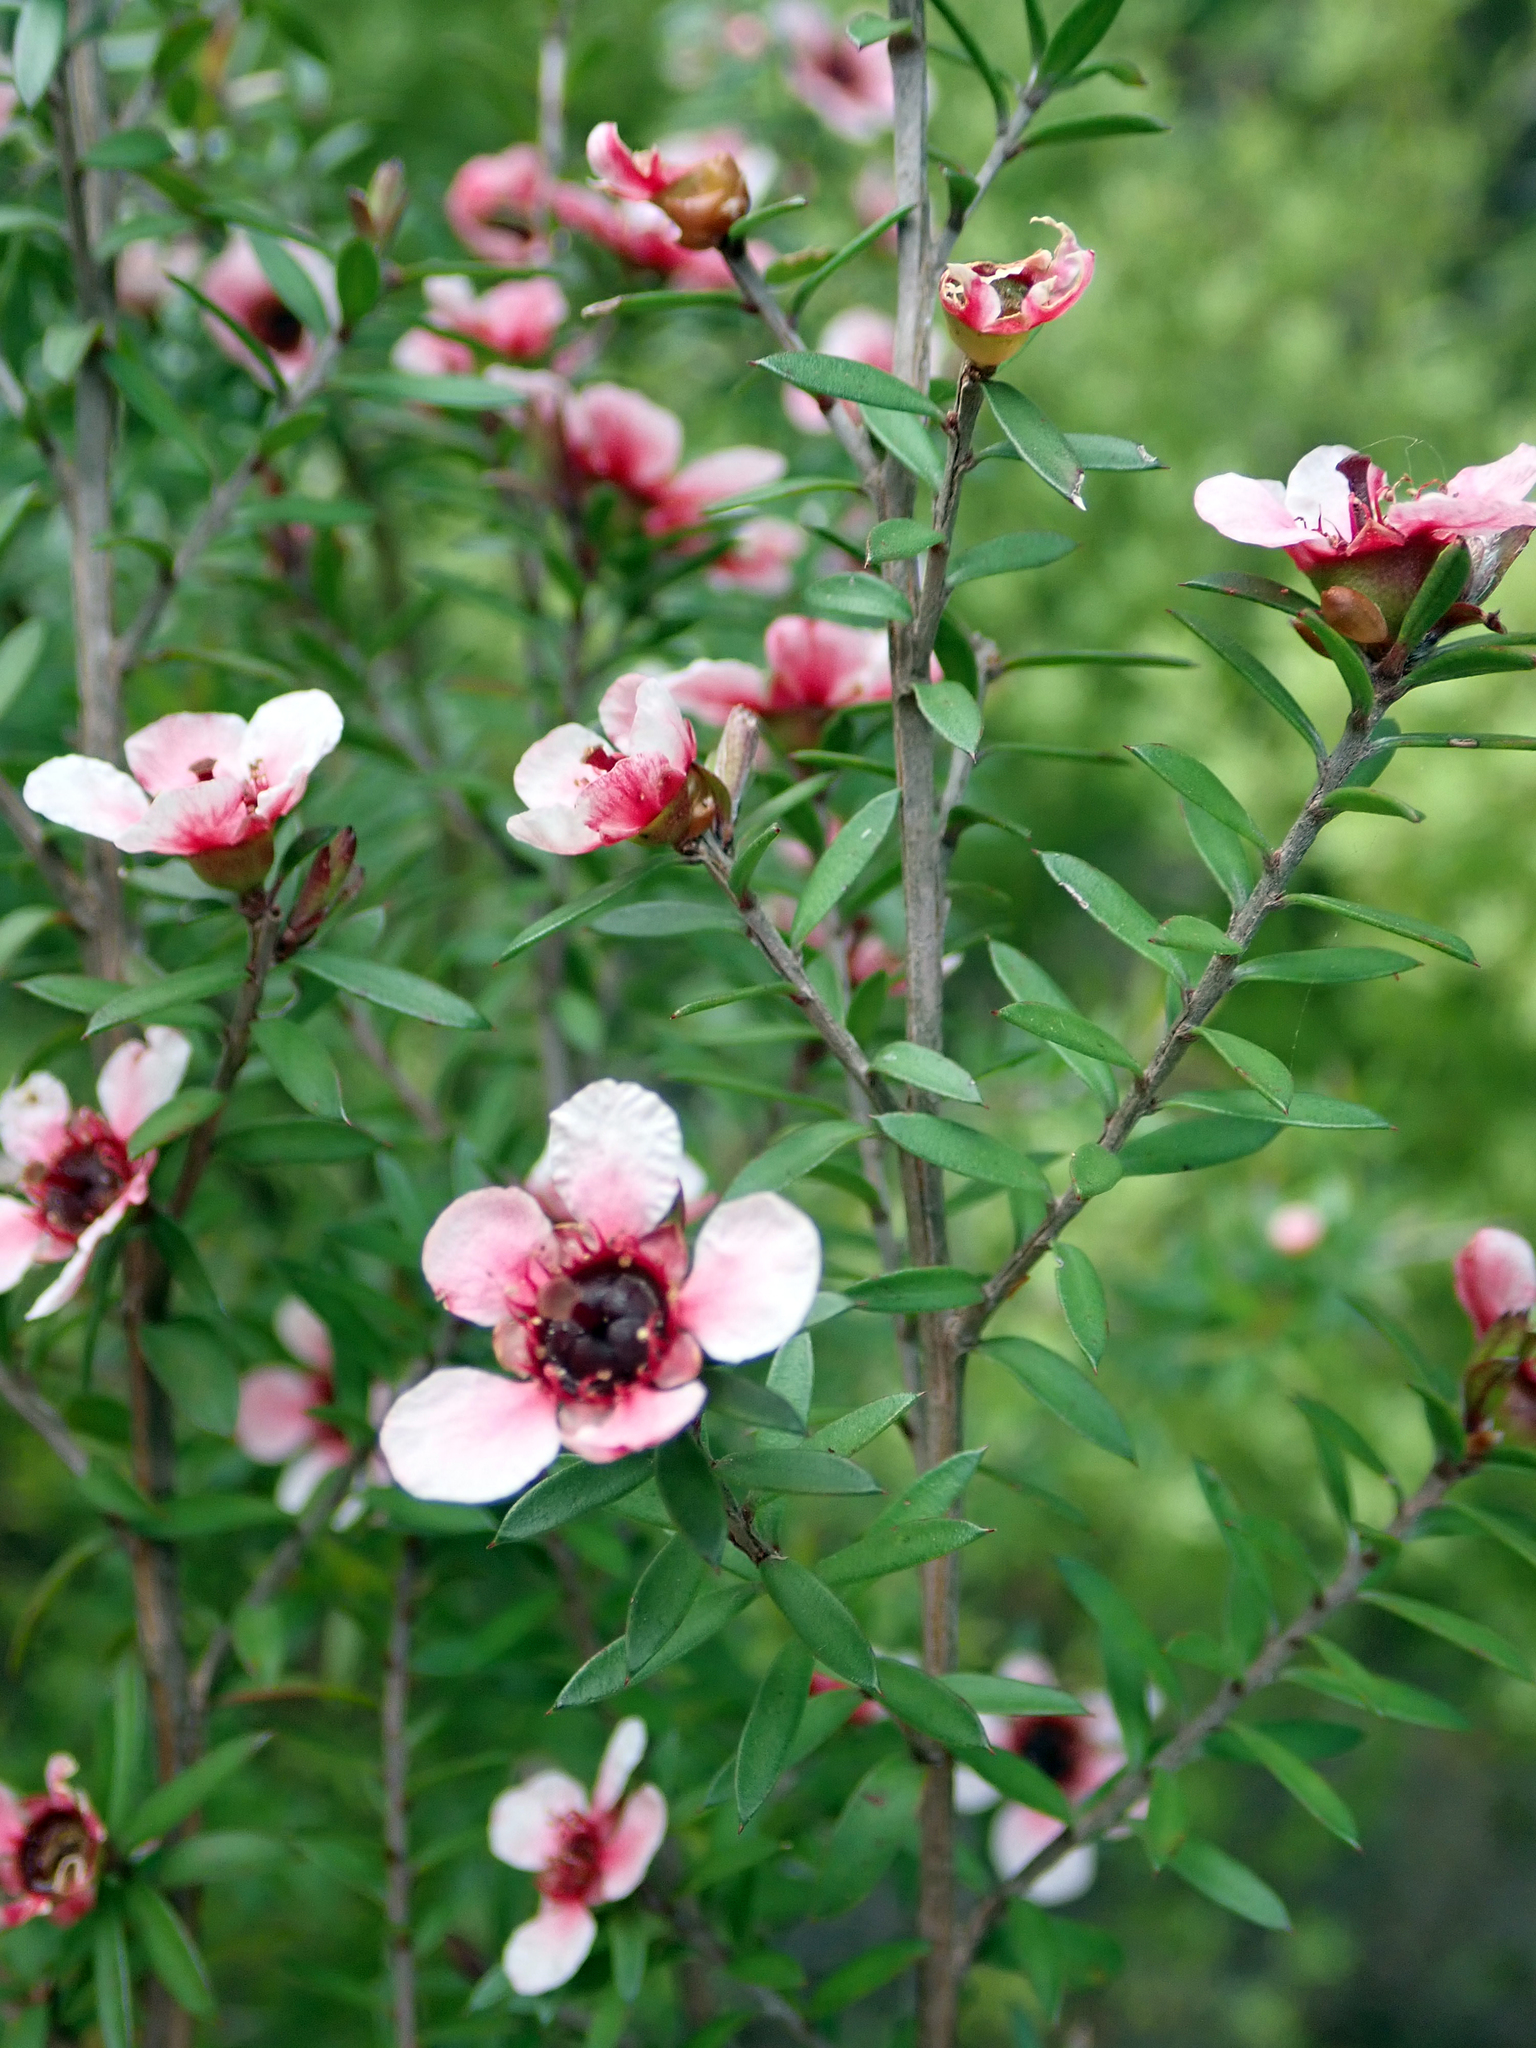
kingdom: Plantae
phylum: Tracheophyta
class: Magnoliopsida
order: Myrtales
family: Myrtaceae
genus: Leptospermum
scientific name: Leptospermum scoparium
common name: Broom tea-tree
